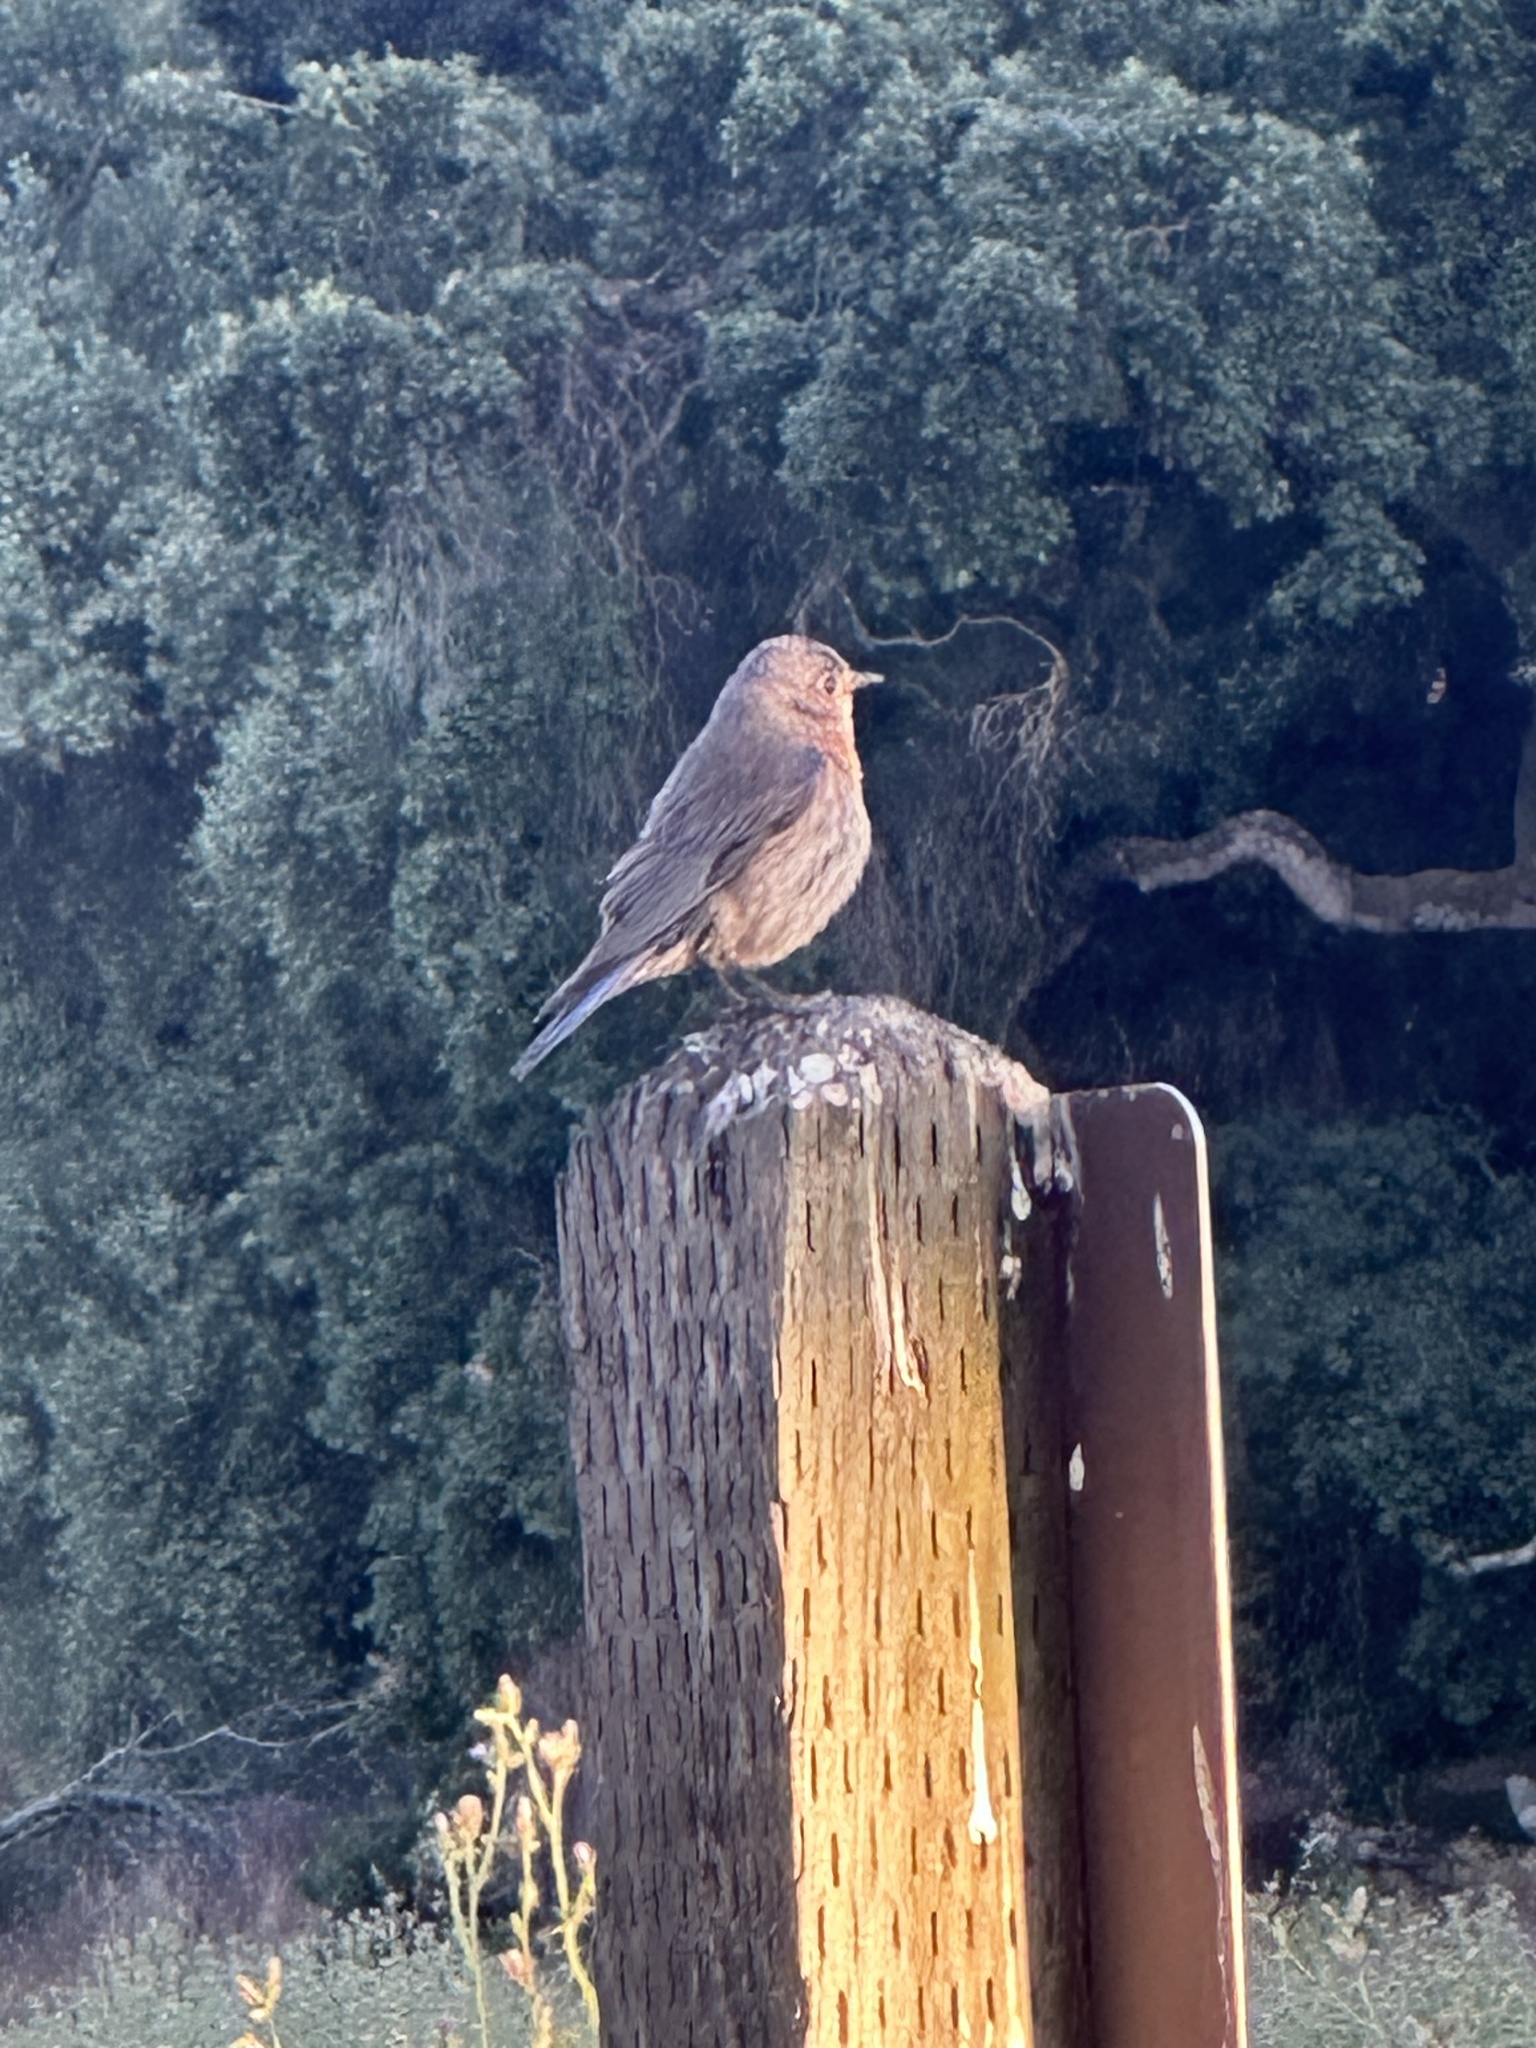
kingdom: Animalia
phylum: Chordata
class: Aves
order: Passeriformes
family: Passerellidae
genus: Melozone
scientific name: Melozone crissalis
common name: California towhee
